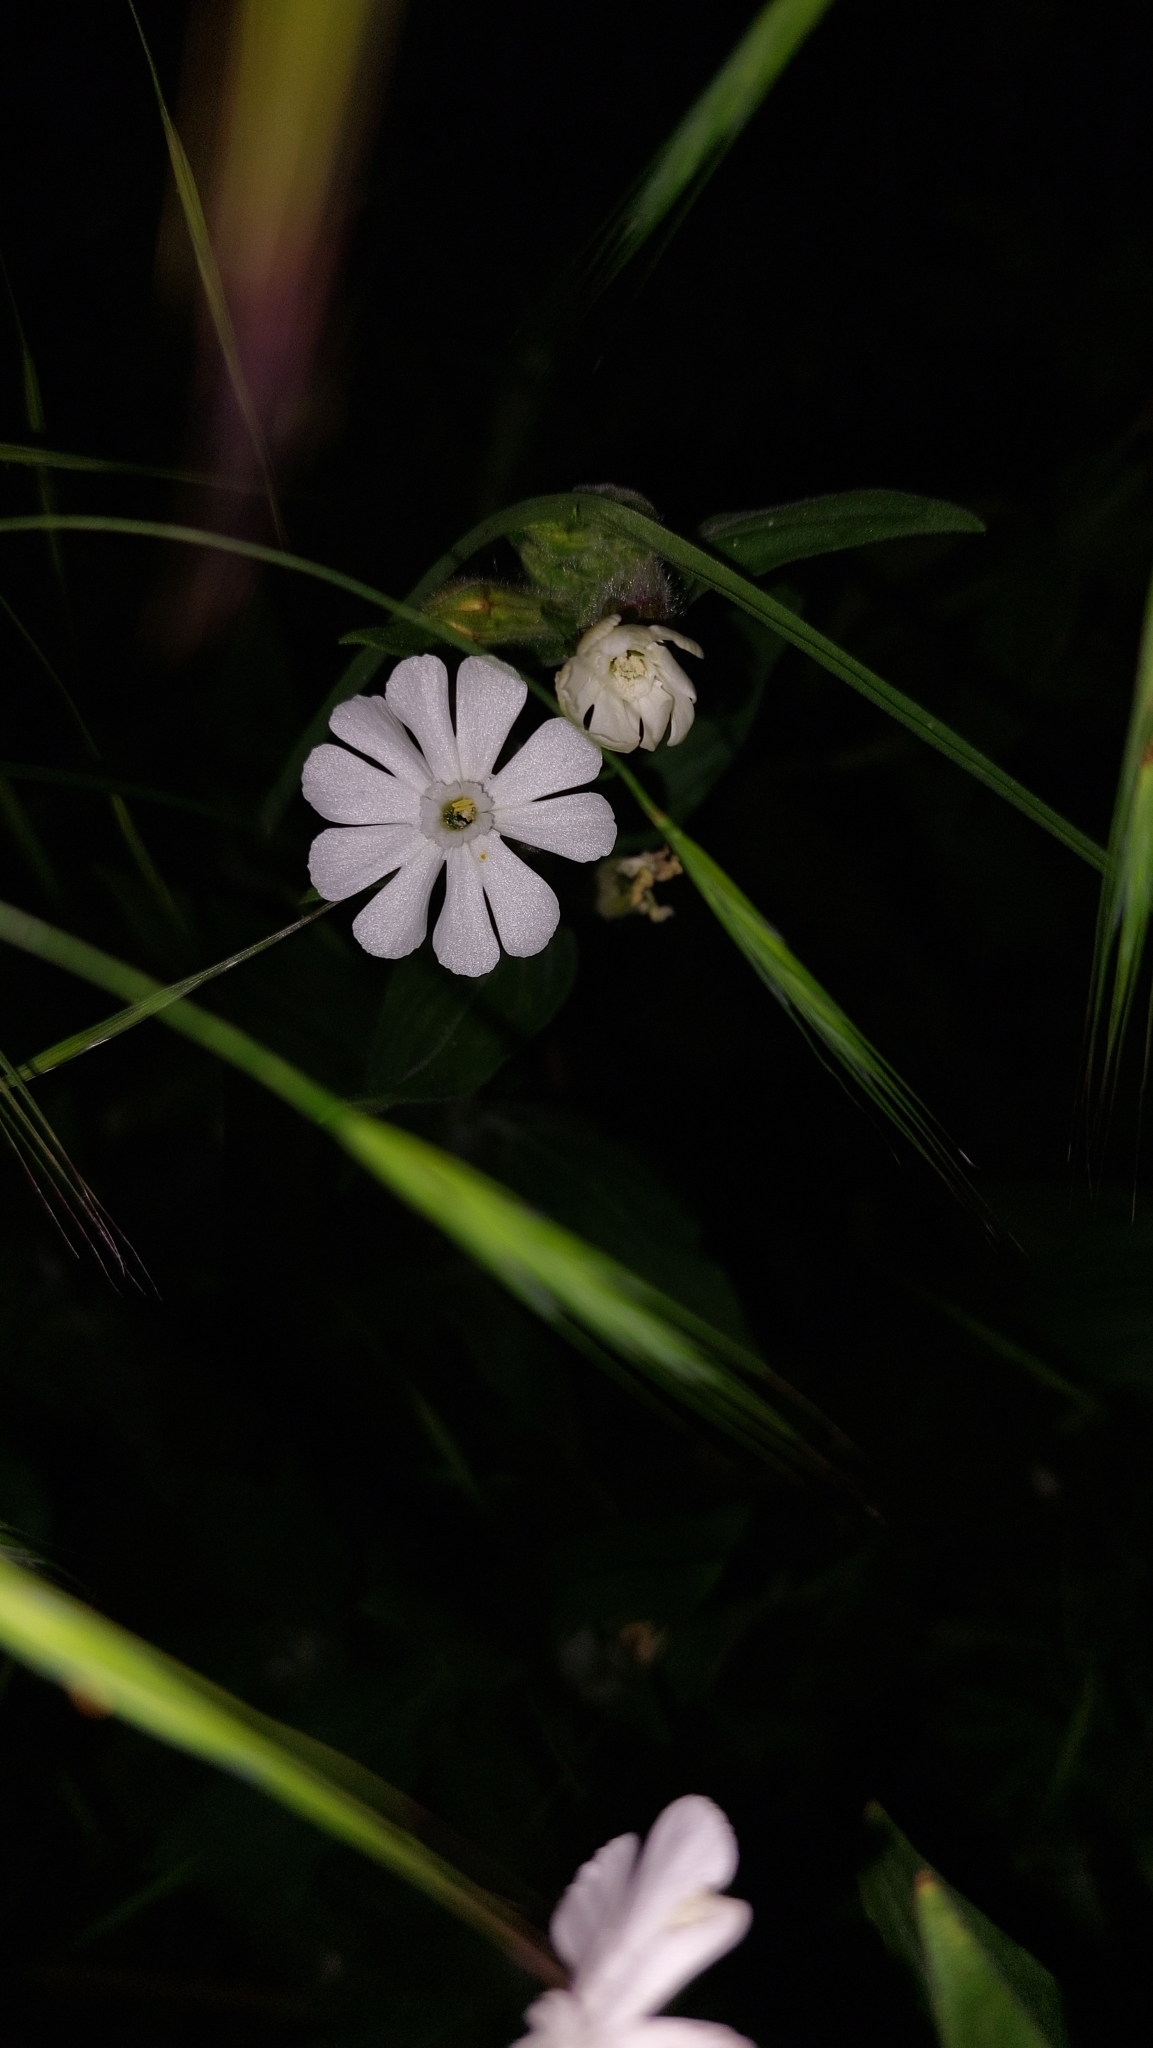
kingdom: Plantae
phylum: Tracheophyta
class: Magnoliopsida
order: Caryophyllales
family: Caryophyllaceae
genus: Silene
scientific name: Silene latifolia
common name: White campion
